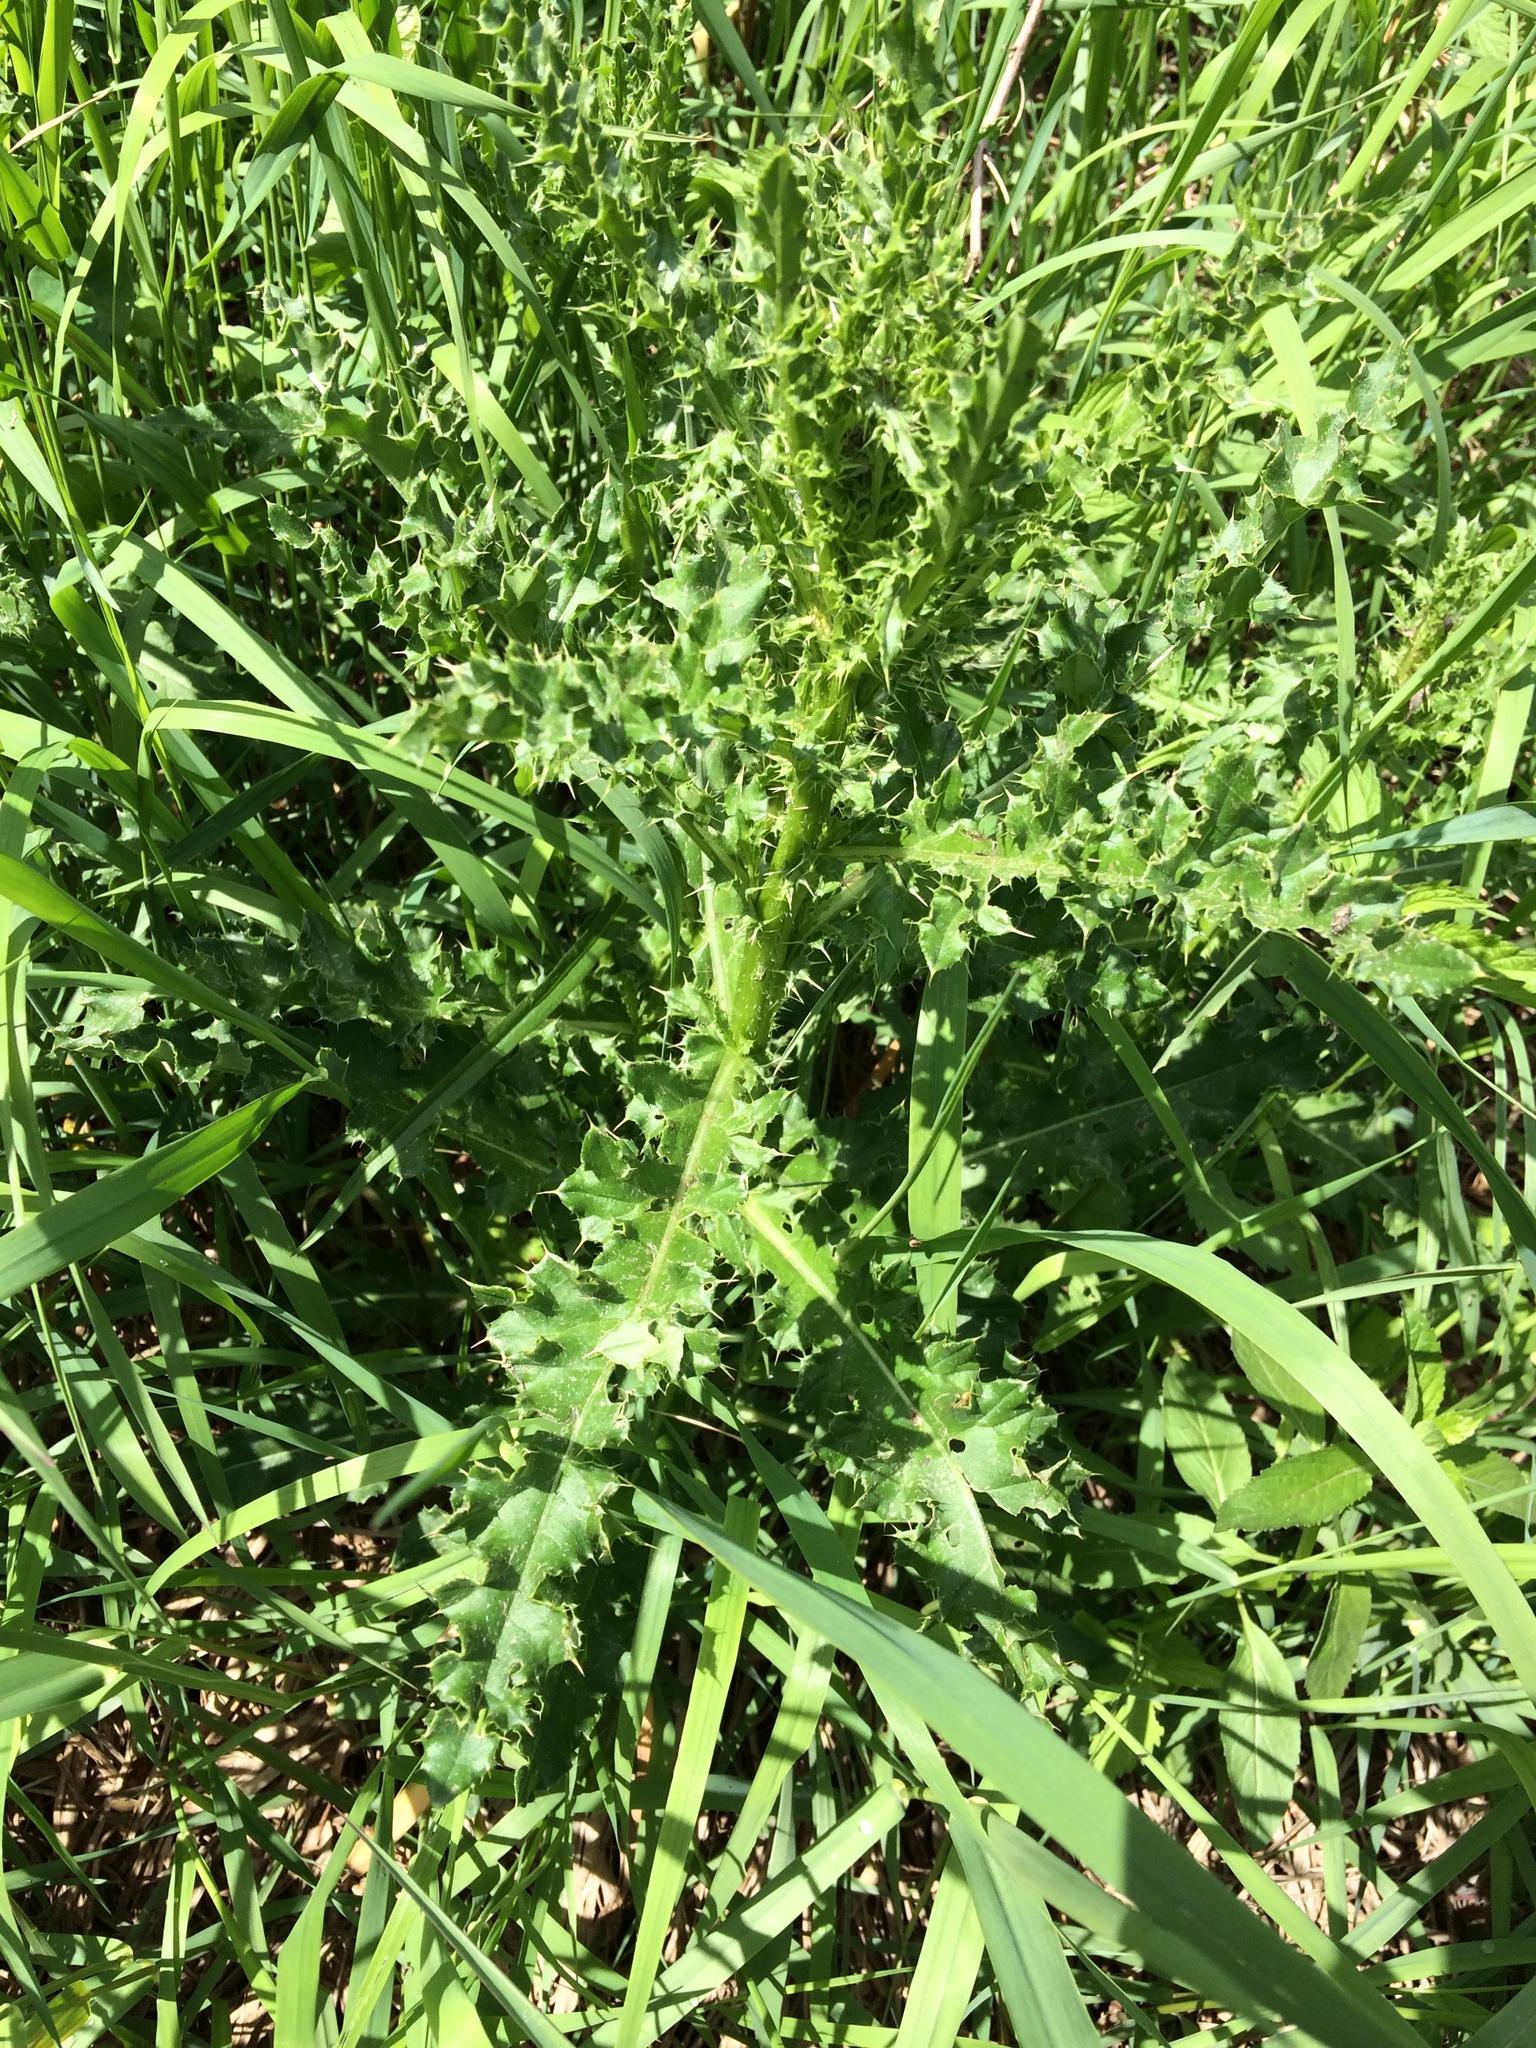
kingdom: Plantae
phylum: Tracheophyta
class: Magnoliopsida
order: Asterales
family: Asteraceae
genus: Cirsium
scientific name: Cirsium arvense
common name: Creeping thistle
